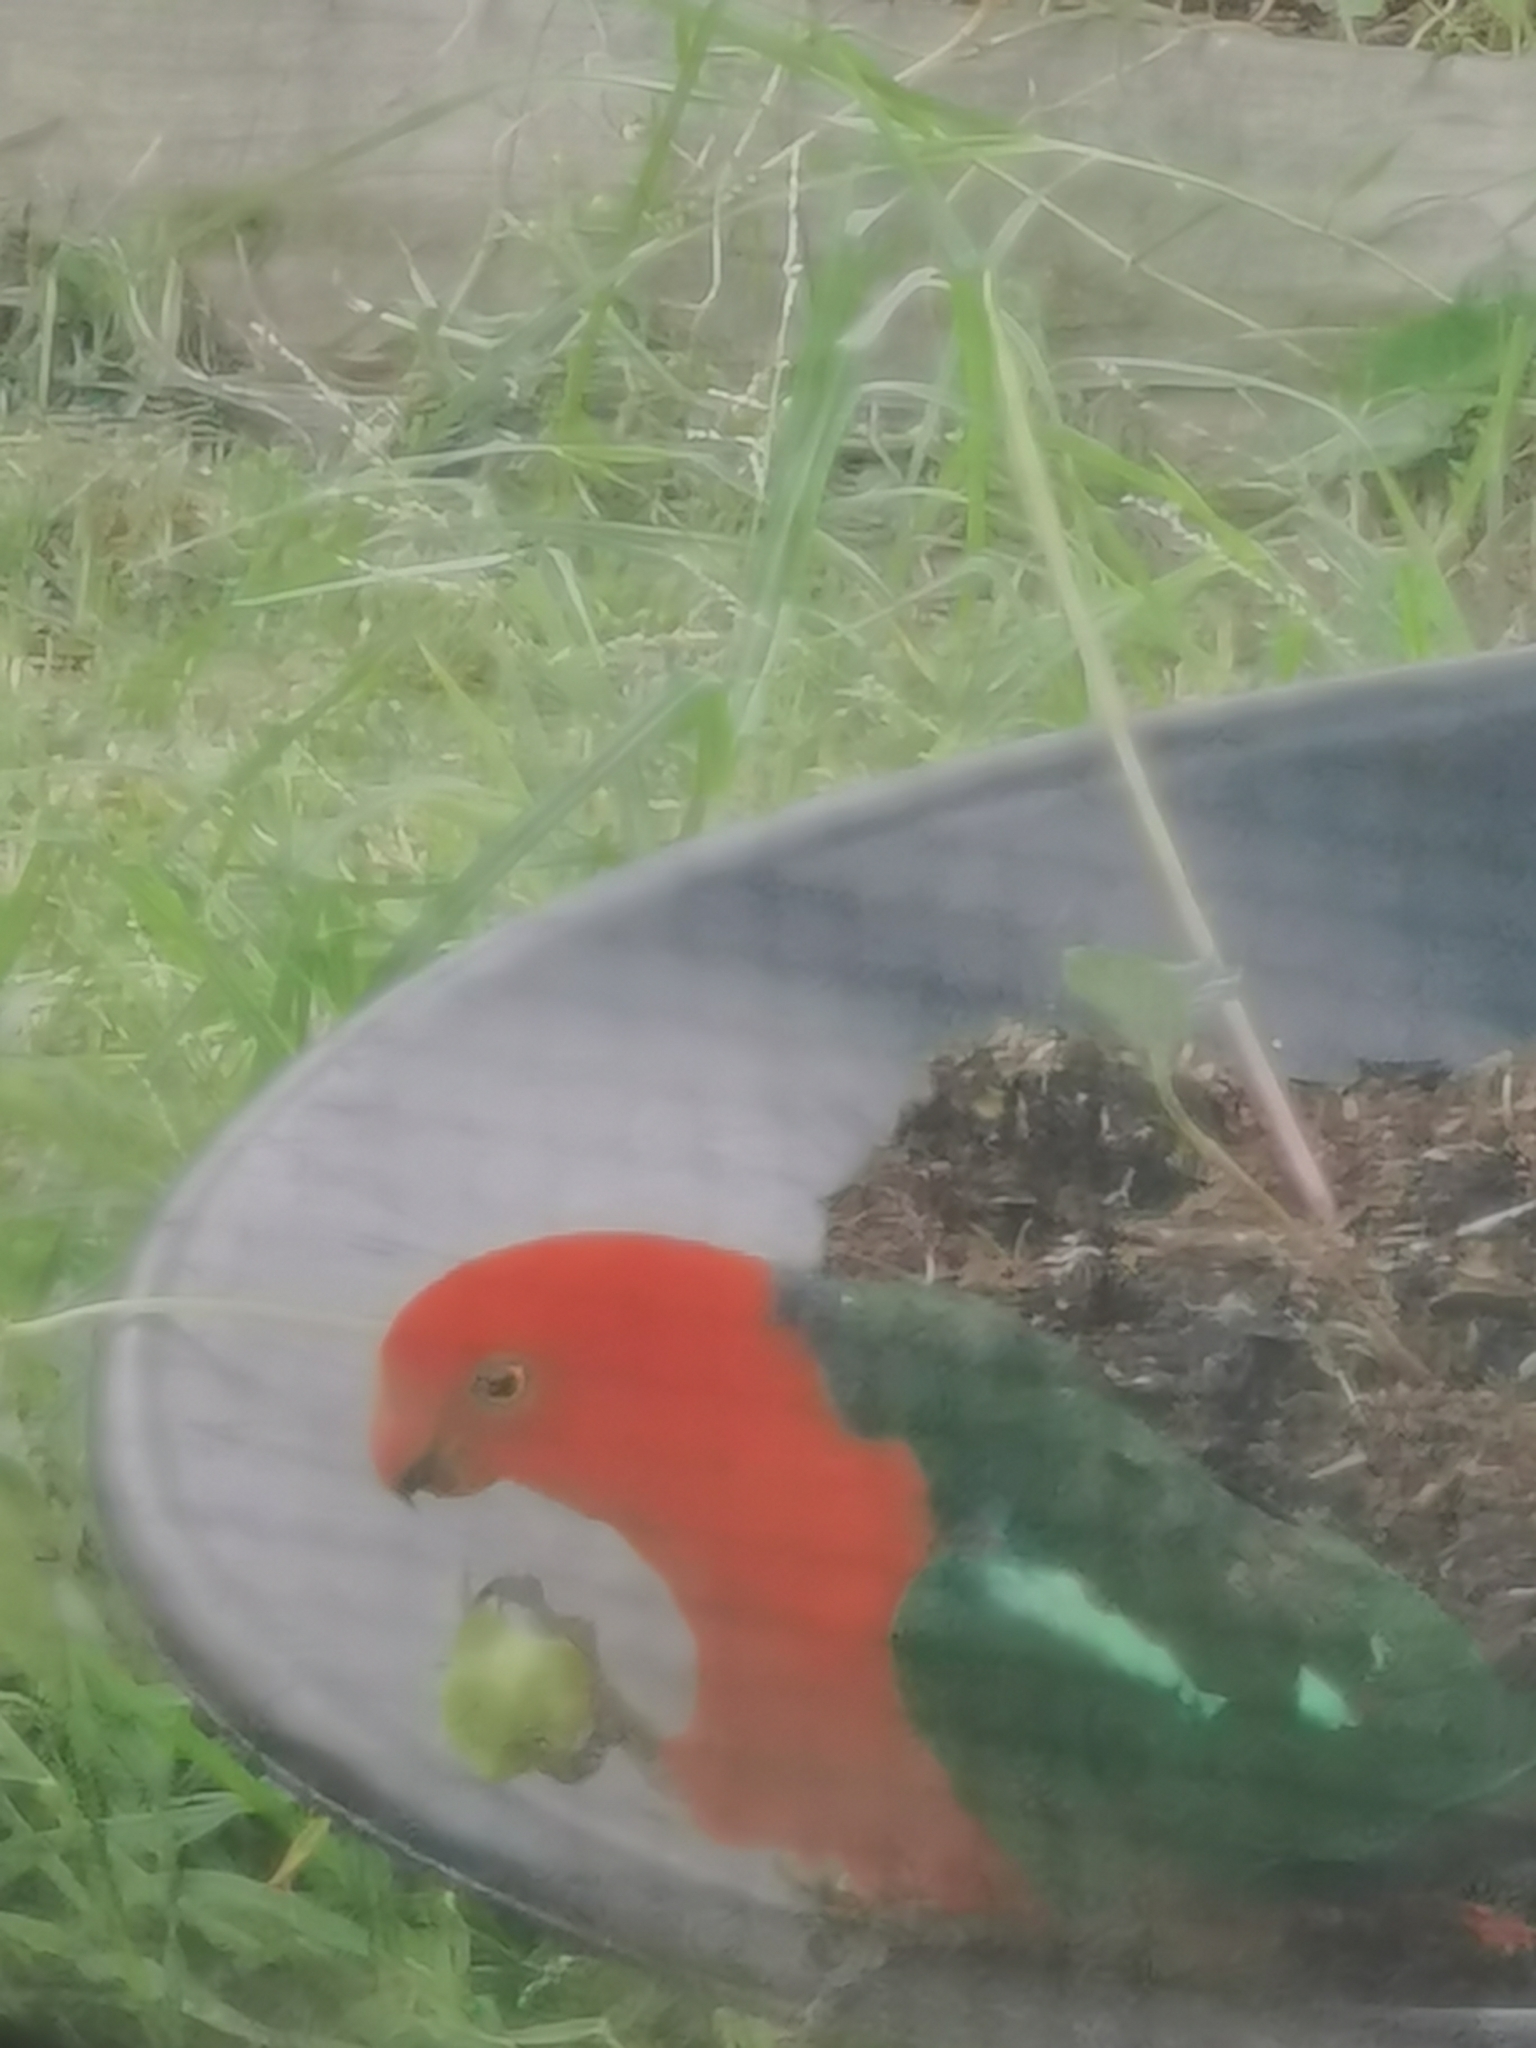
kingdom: Animalia
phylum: Chordata
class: Aves
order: Psittaciformes
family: Psittacidae
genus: Alisterus
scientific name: Alisterus scapularis
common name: Australian king parrot
